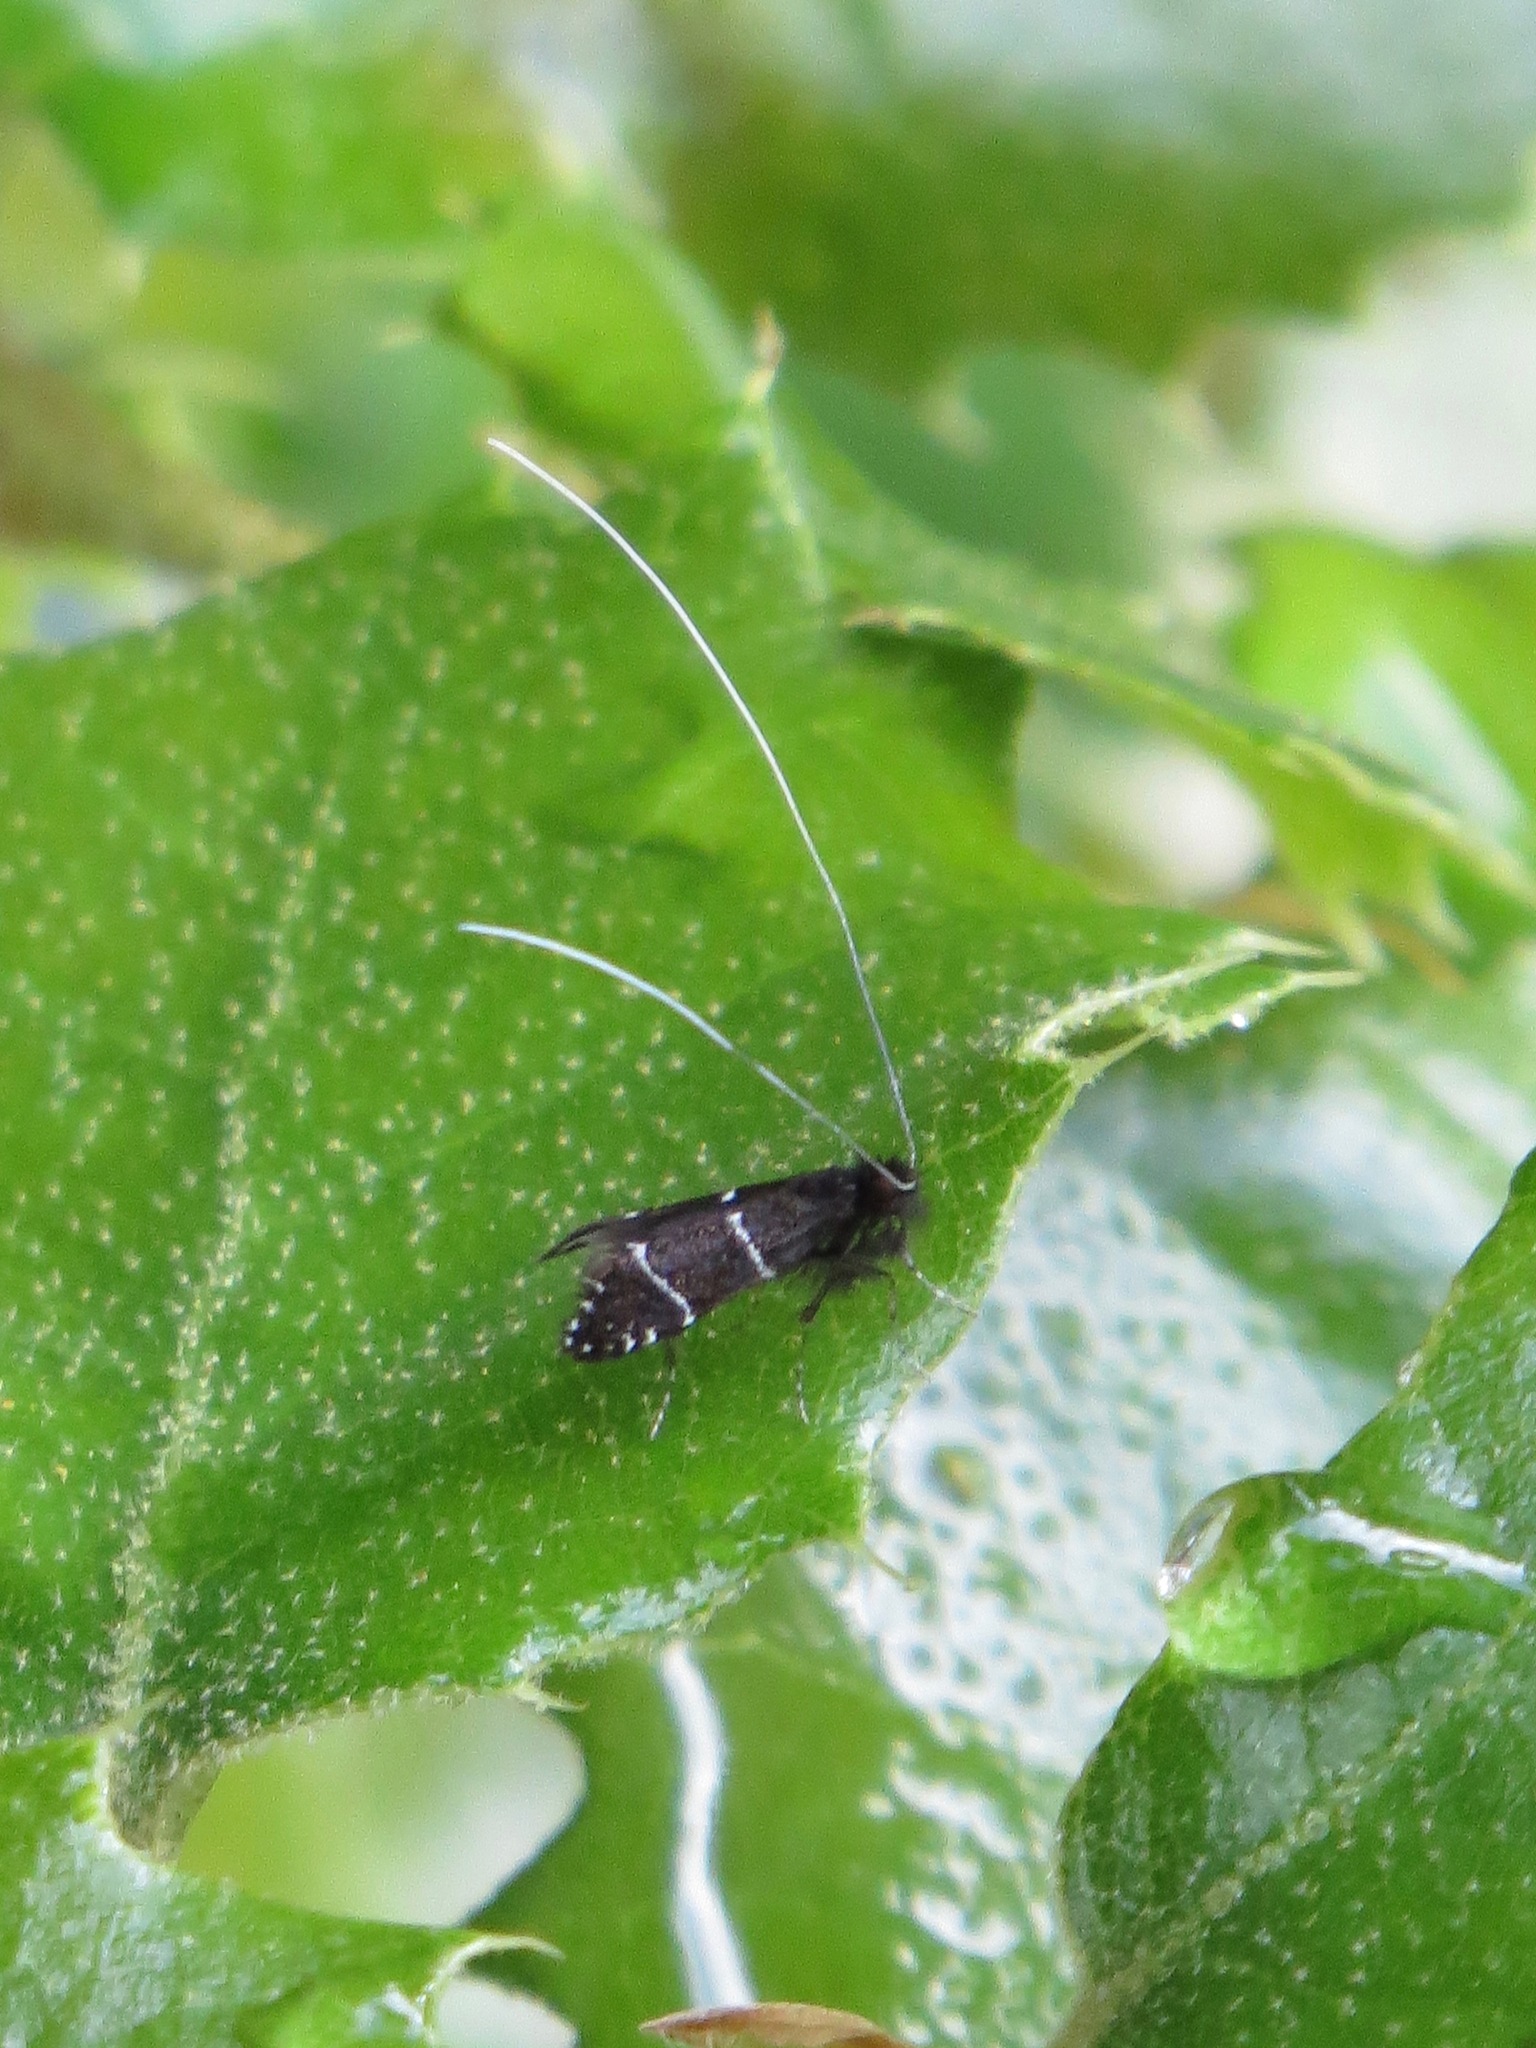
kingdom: Animalia
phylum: Arthropoda
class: Insecta
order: Lepidoptera
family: Adelidae
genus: Adela
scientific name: Adela septentrionella
